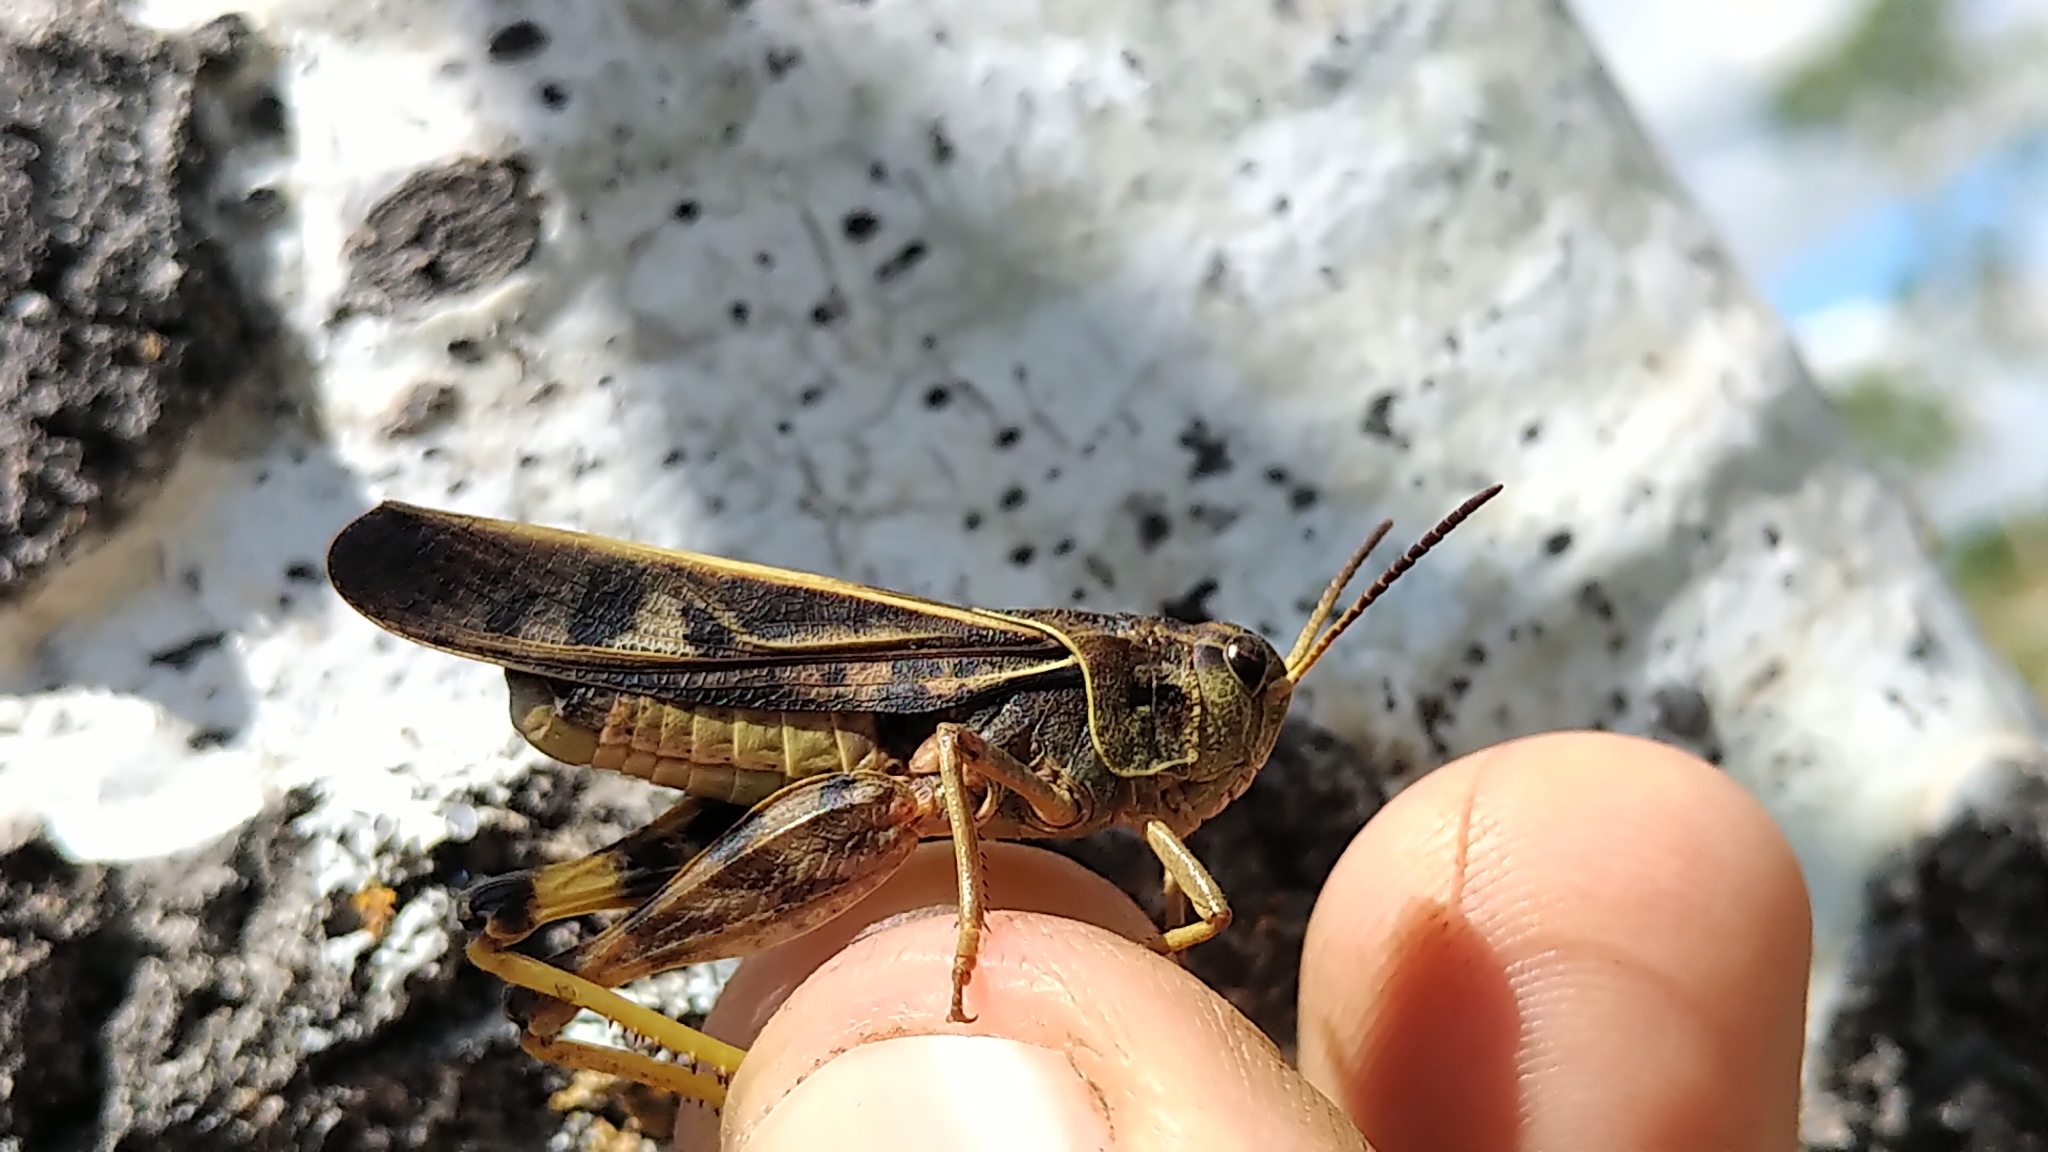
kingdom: Animalia
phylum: Arthropoda
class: Insecta
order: Orthoptera
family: Acrididae
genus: Pardalophora
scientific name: Pardalophora apiculata
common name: Coral-winged locust
